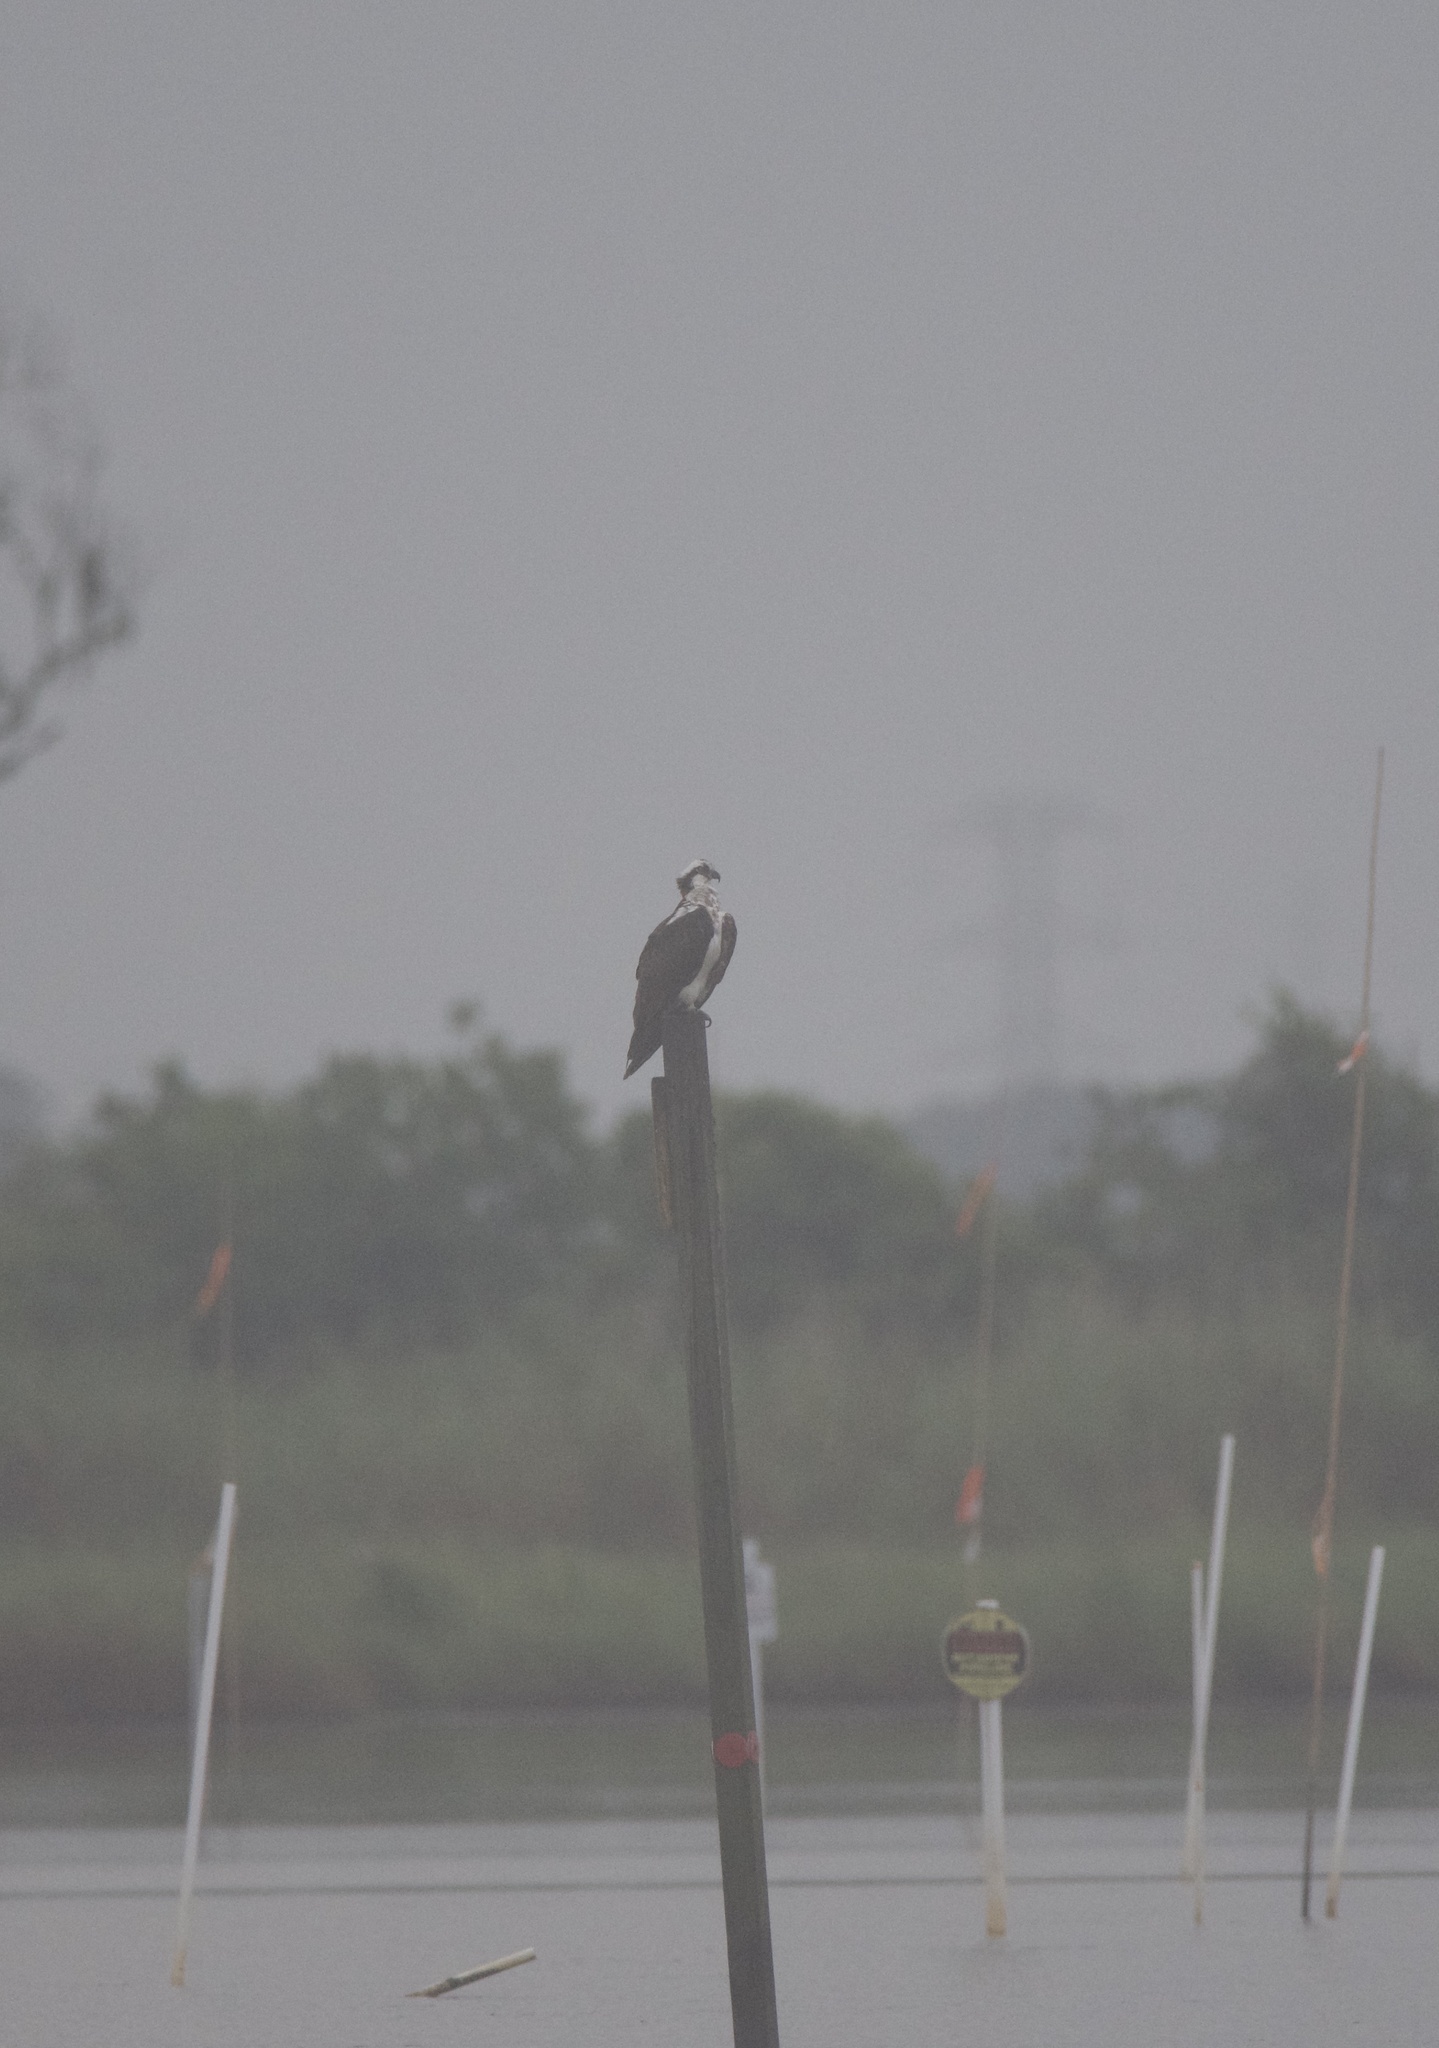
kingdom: Animalia
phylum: Chordata
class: Aves
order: Accipitriformes
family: Pandionidae
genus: Pandion
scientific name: Pandion haliaetus
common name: Osprey
